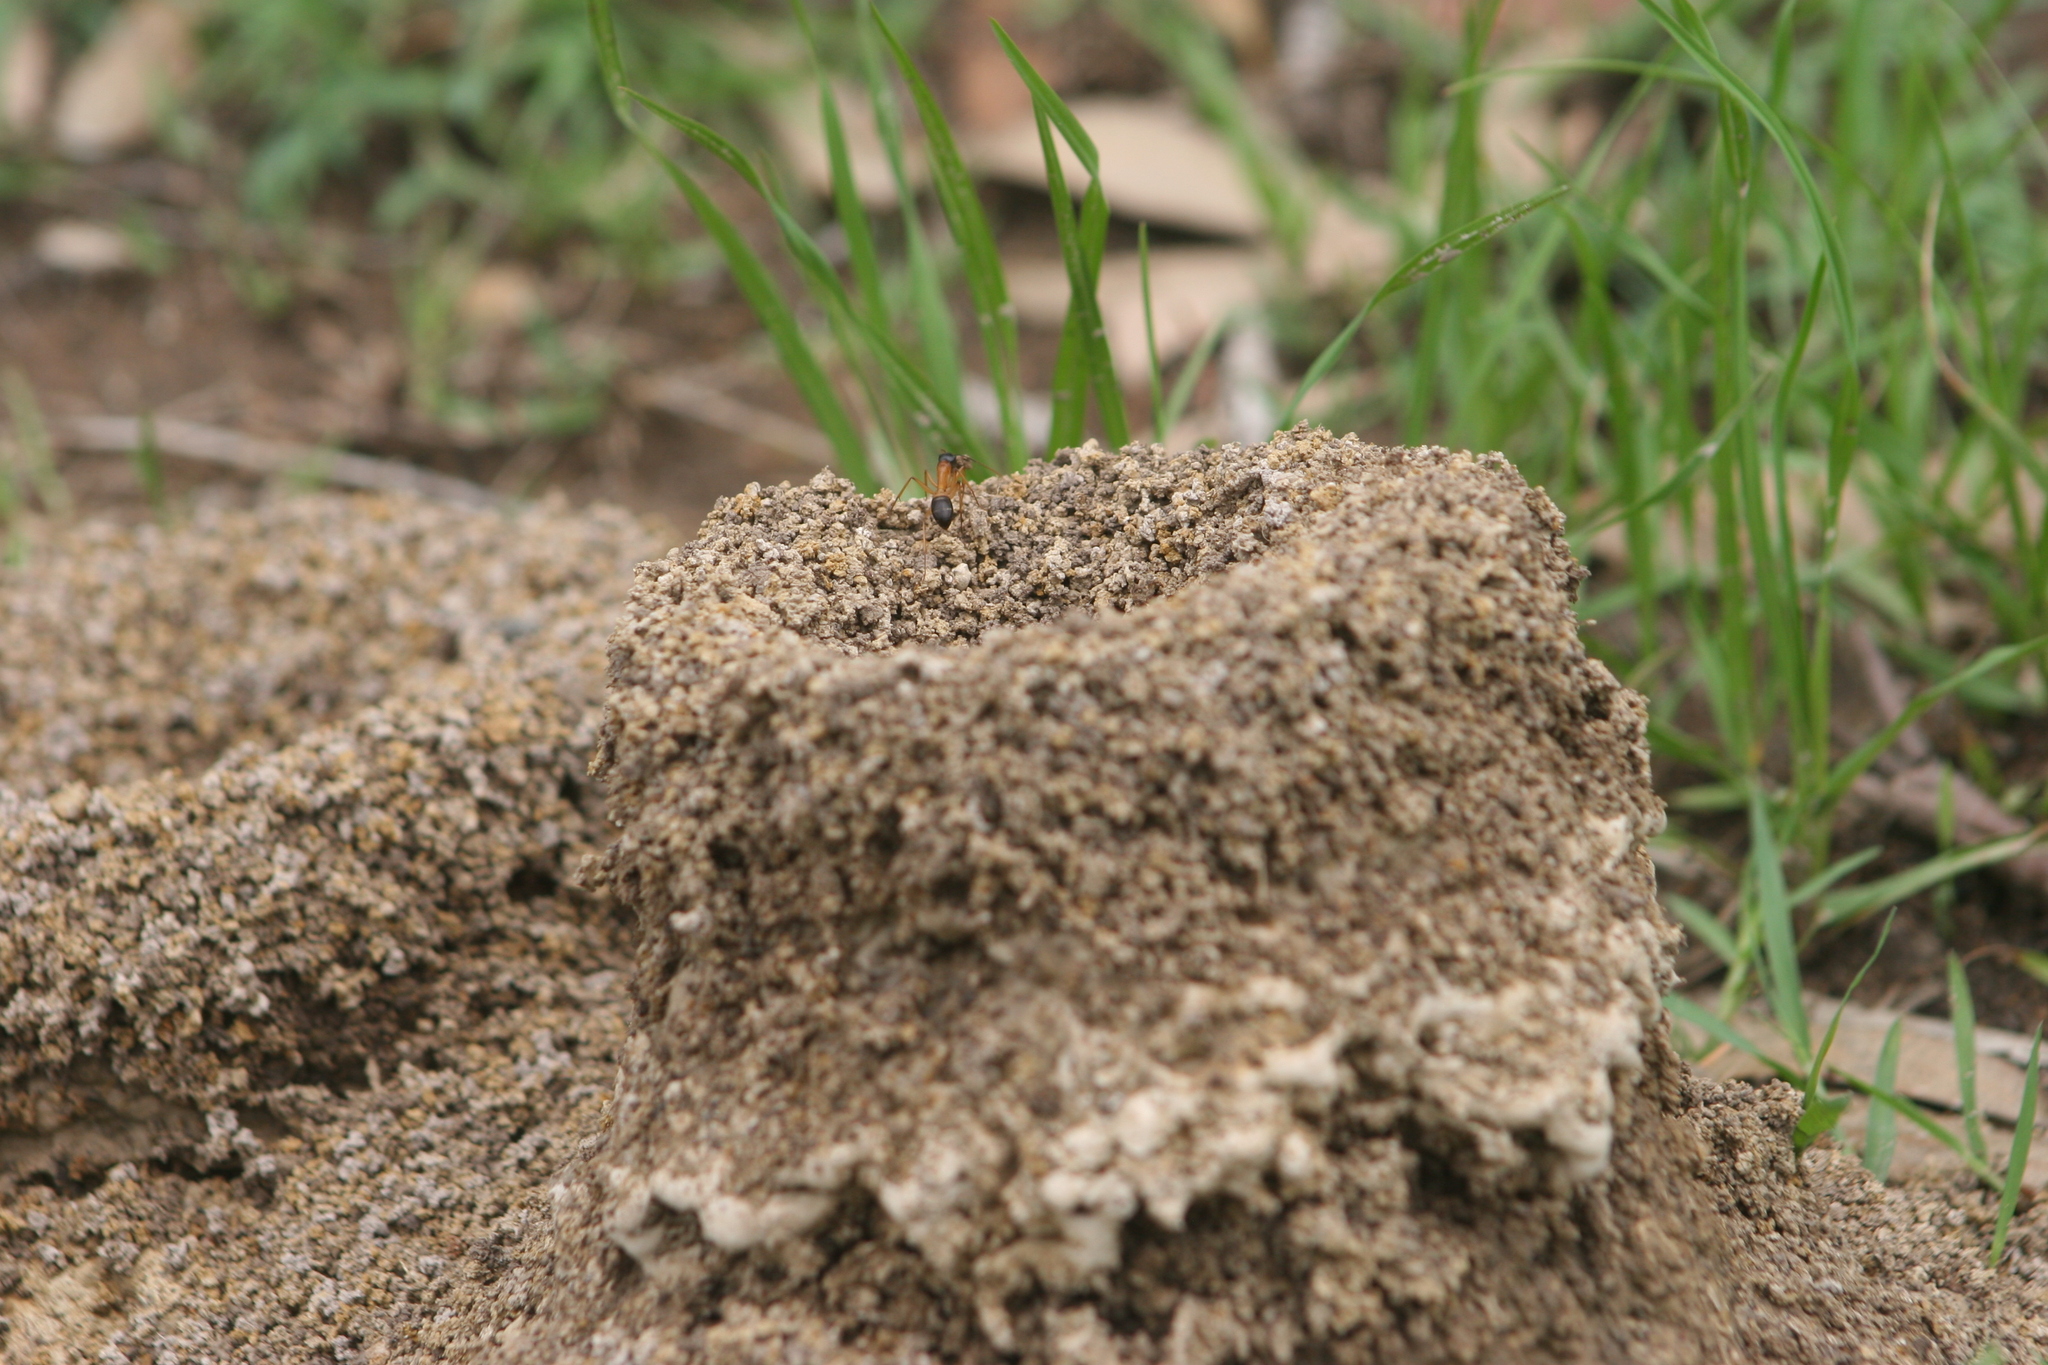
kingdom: Animalia
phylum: Arthropoda
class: Insecta
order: Hymenoptera
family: Formicidae
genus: Camponotus
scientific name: Camponotus consobrinus
